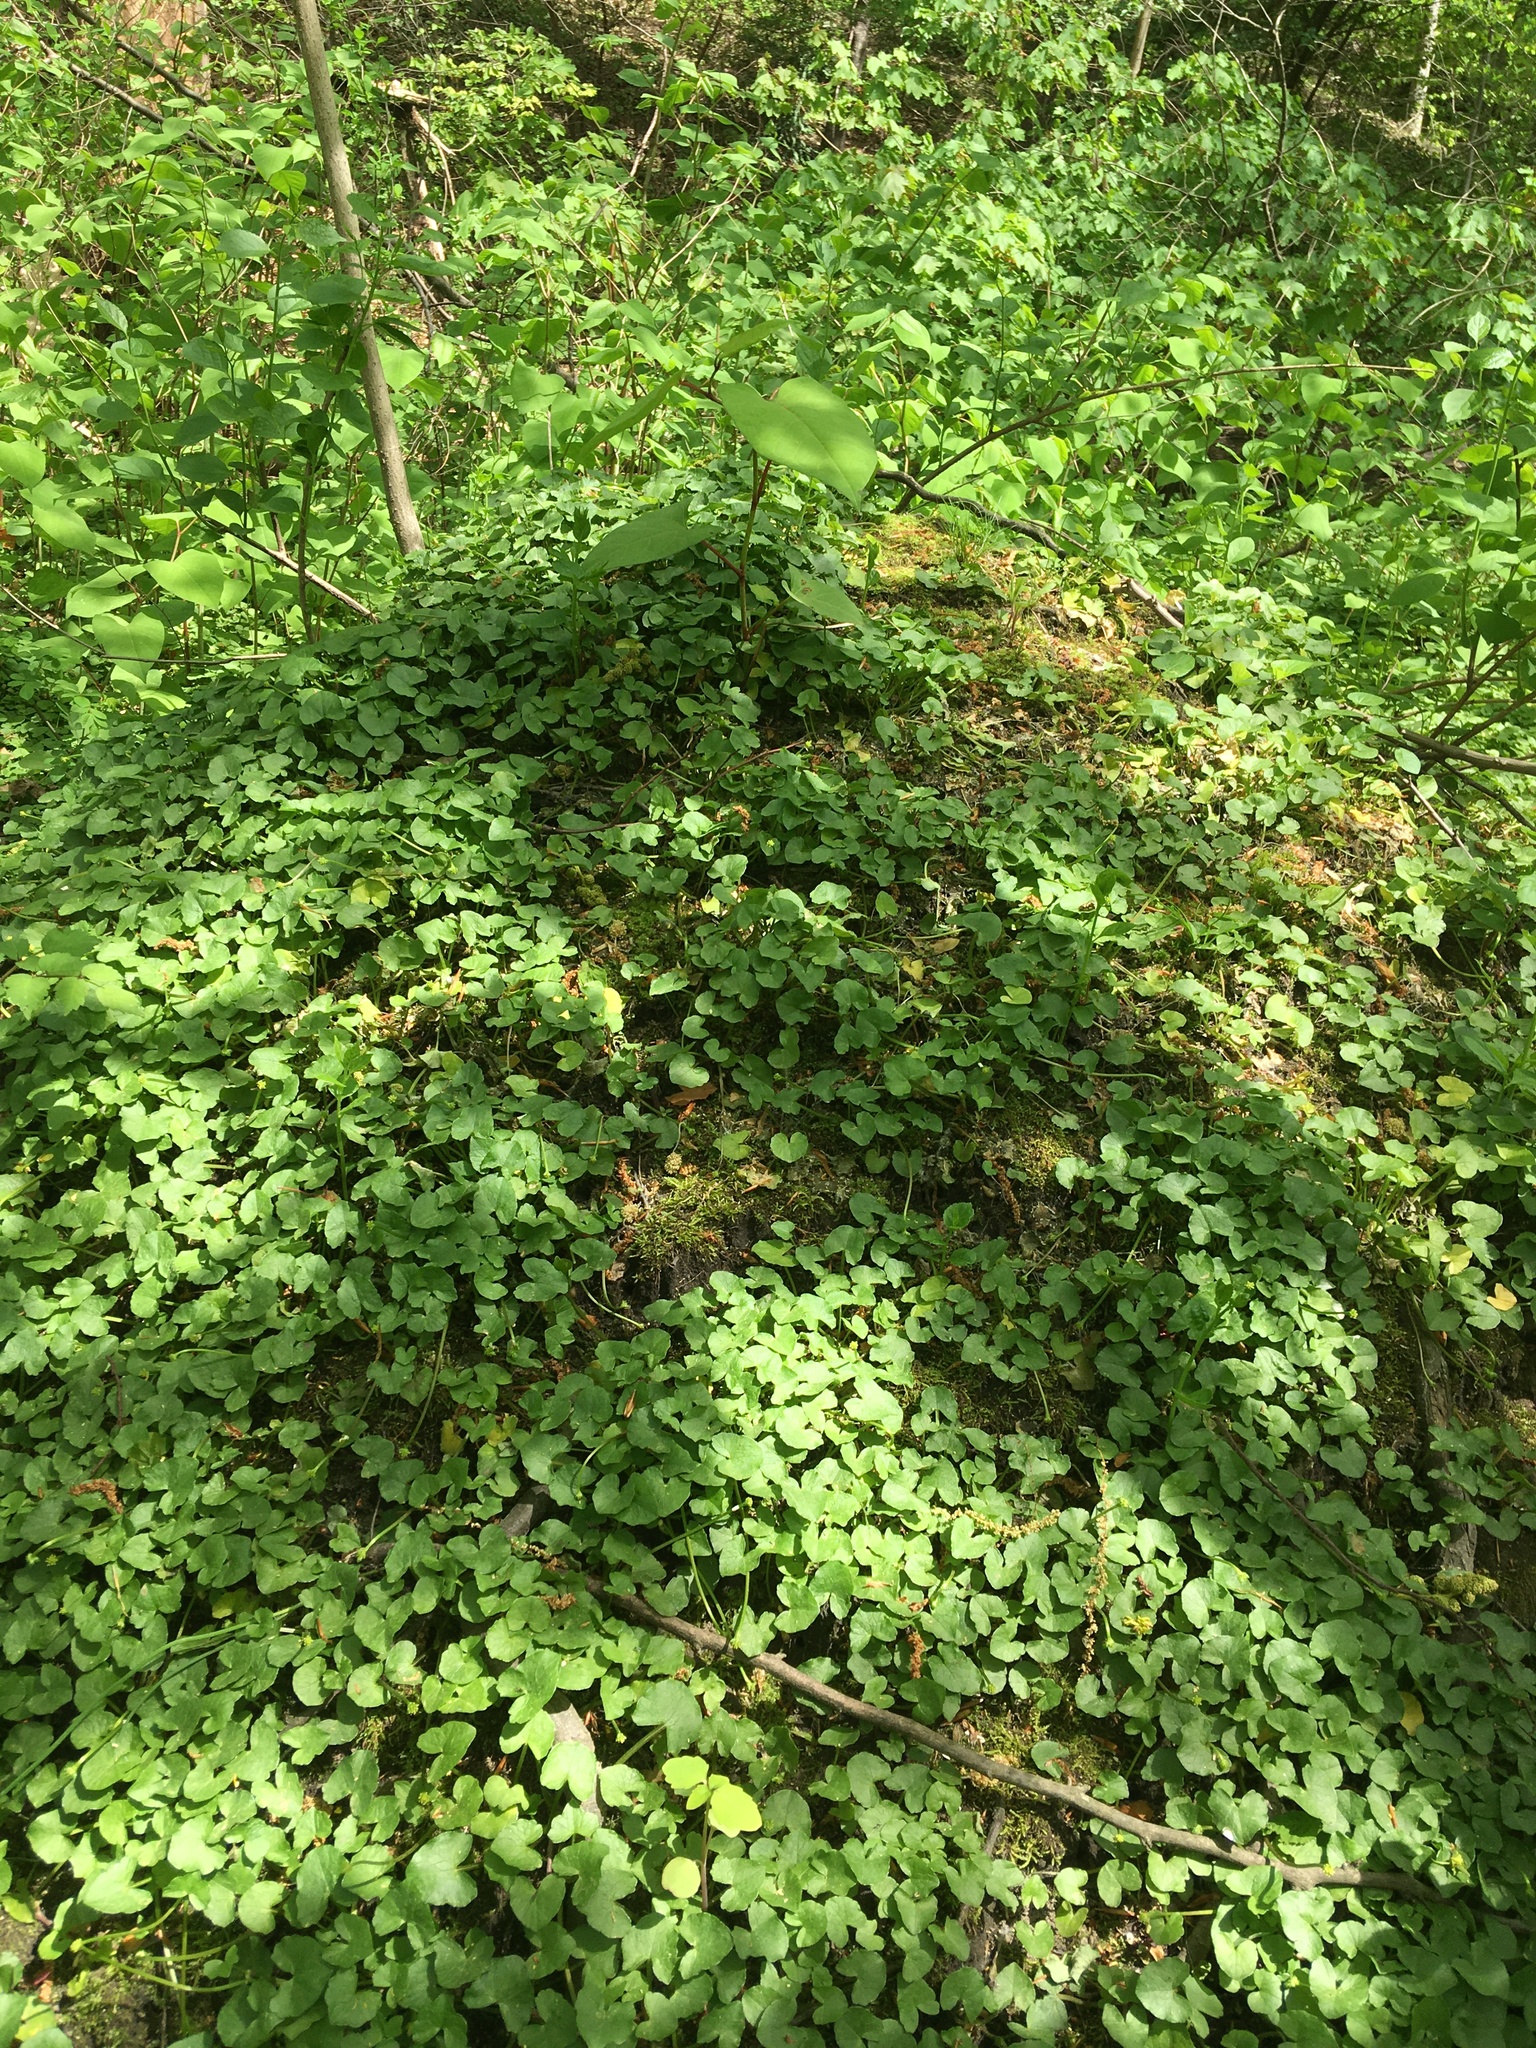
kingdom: Plantae
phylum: Tracheophyta
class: Magnoliopsida
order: Ranunculales
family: Ranunculaceae
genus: Ficaria
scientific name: Ficaria verna
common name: Lesser celandine
